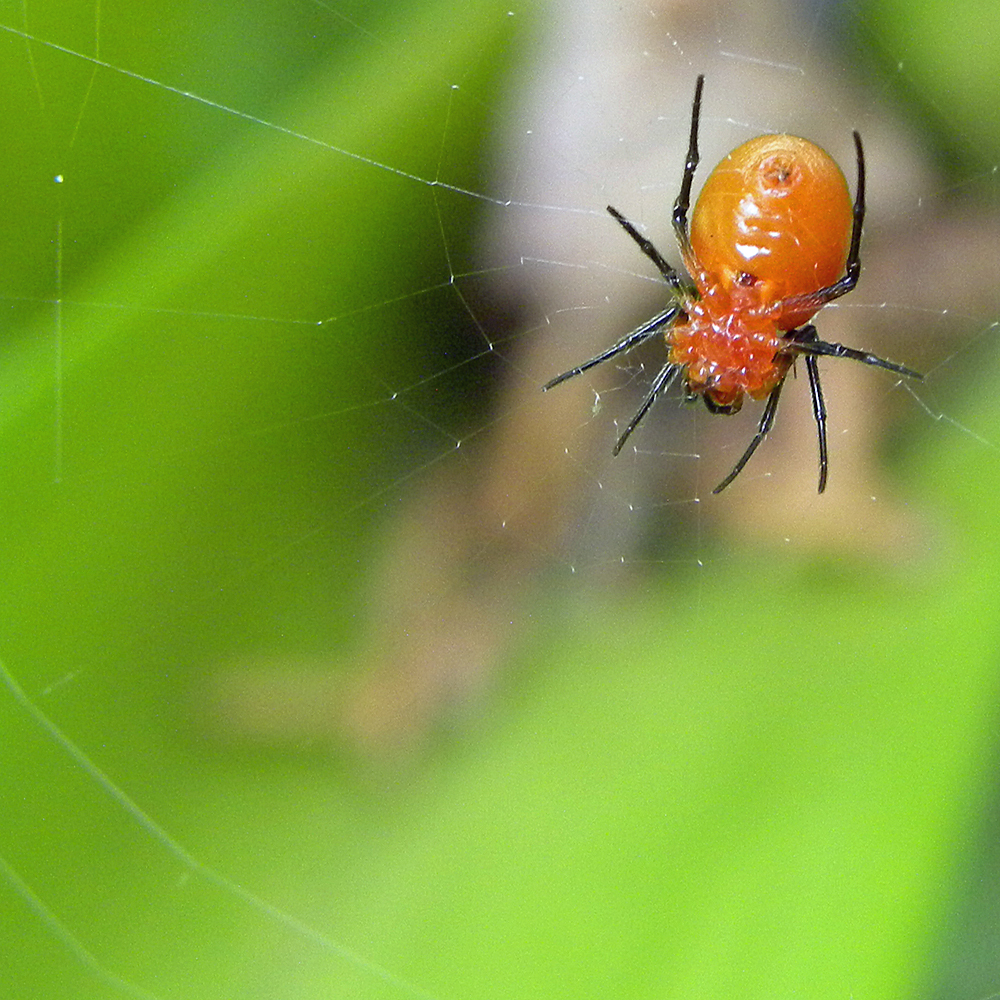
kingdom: Animalia
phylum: Arthropoda
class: Arachnida
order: Araneae
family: Araneidae
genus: Hypsosinga
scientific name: Hypsosinga rubens
